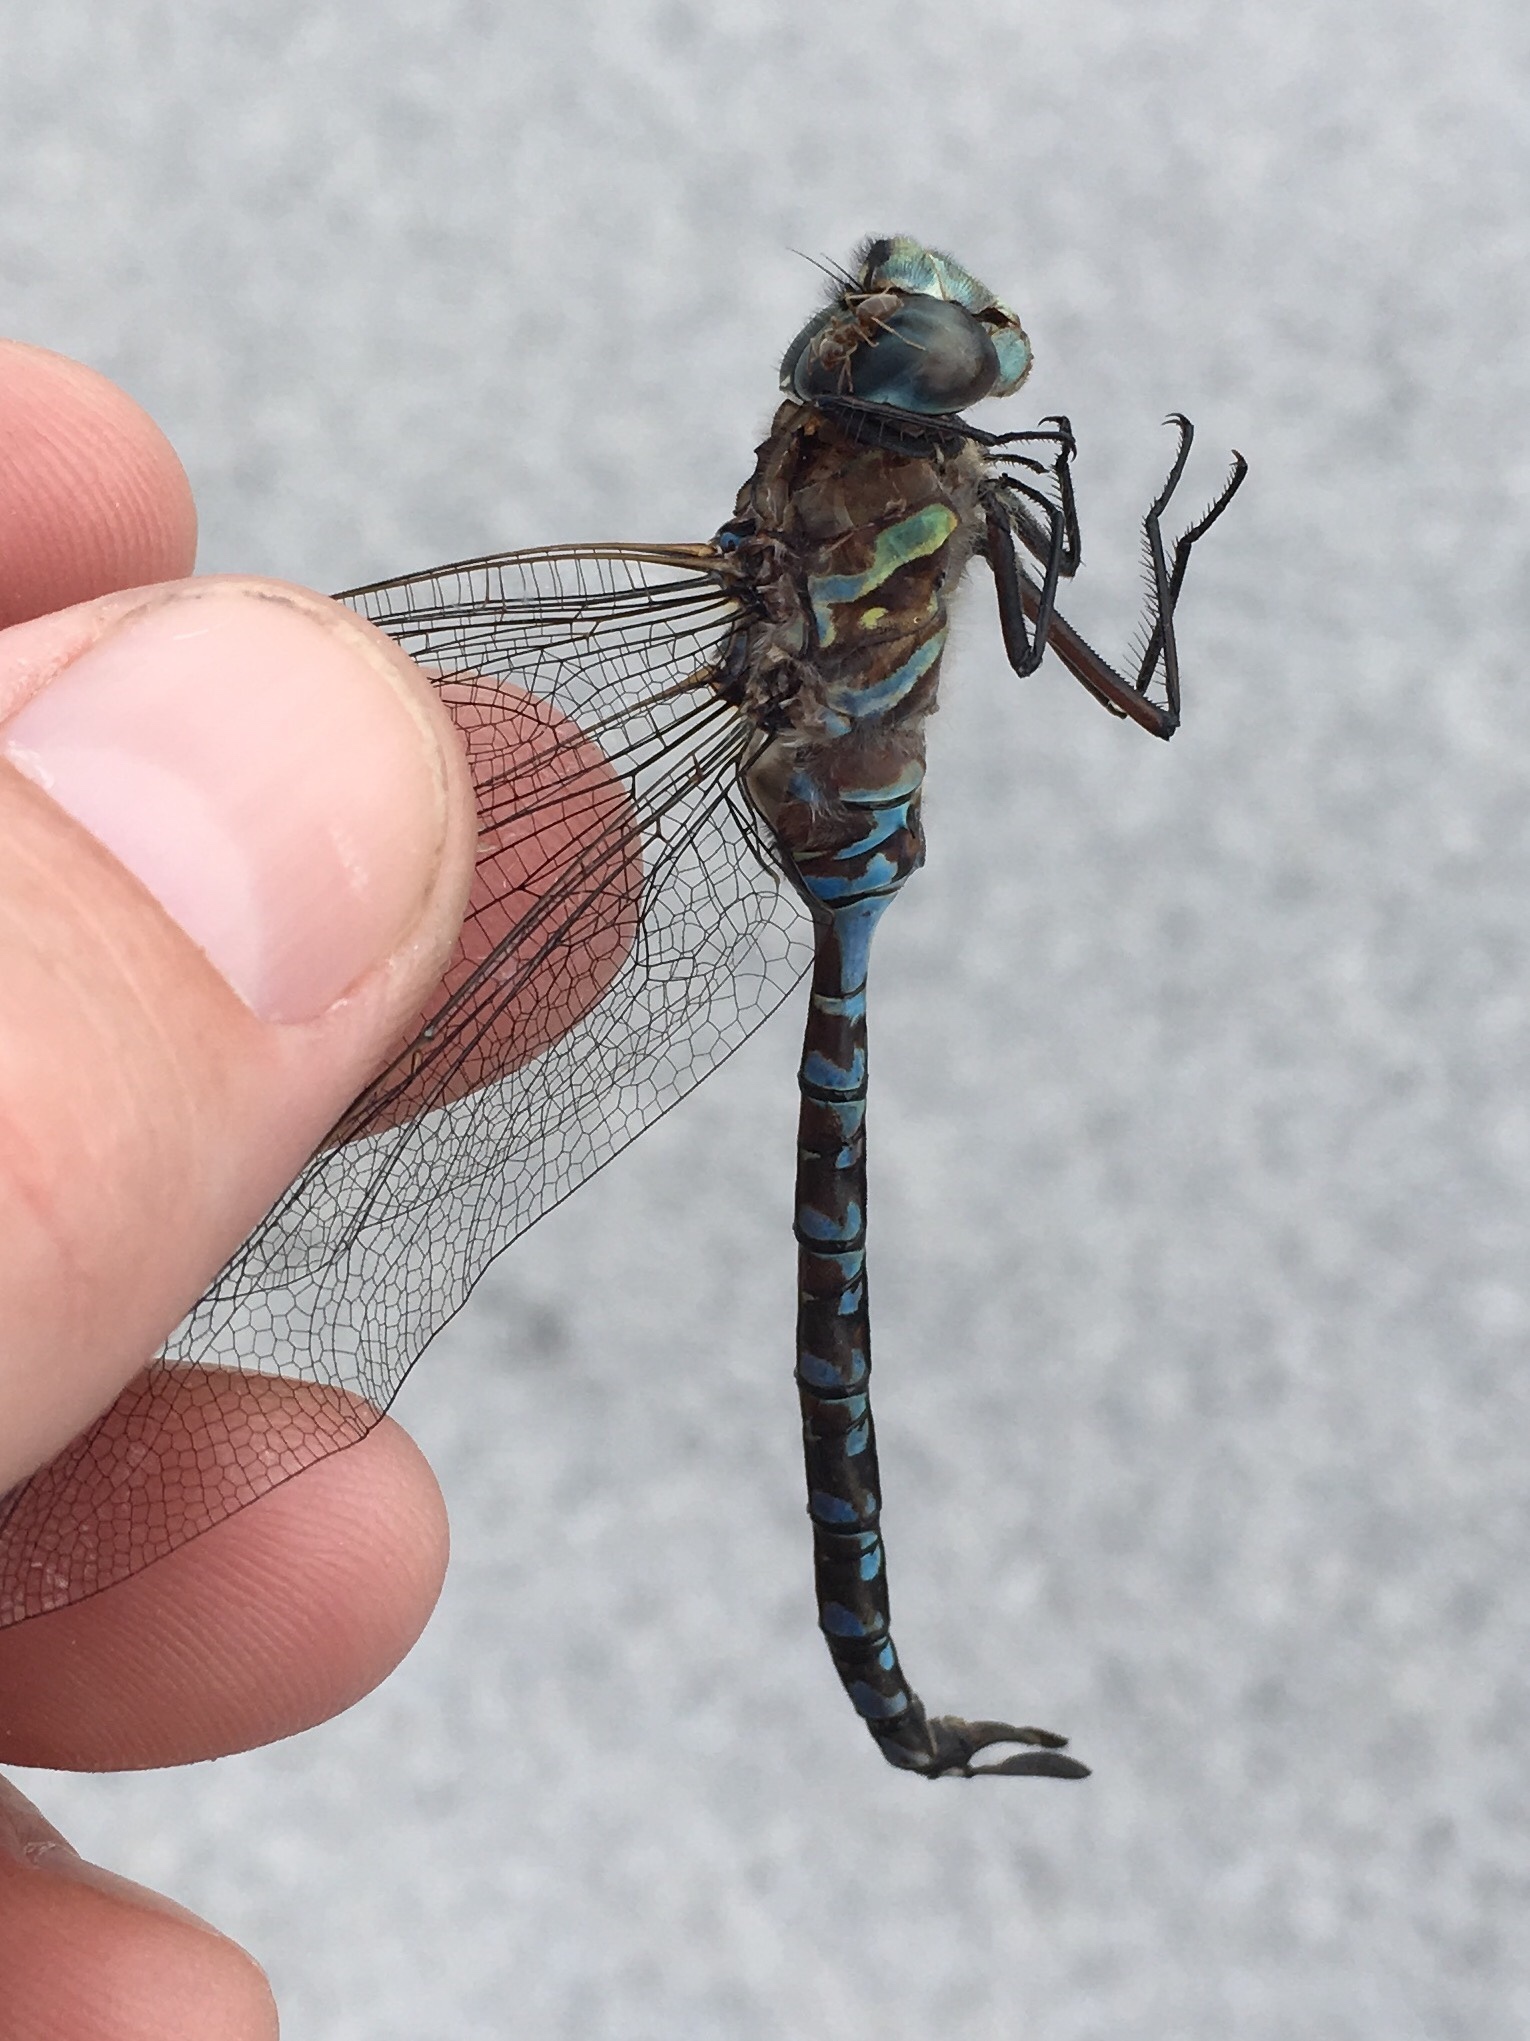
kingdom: Animalia
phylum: Arthropoda
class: Insecta
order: Odonata
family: Aeshnidae
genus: Aeshna
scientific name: Aeshna canadensis
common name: Canada darner
